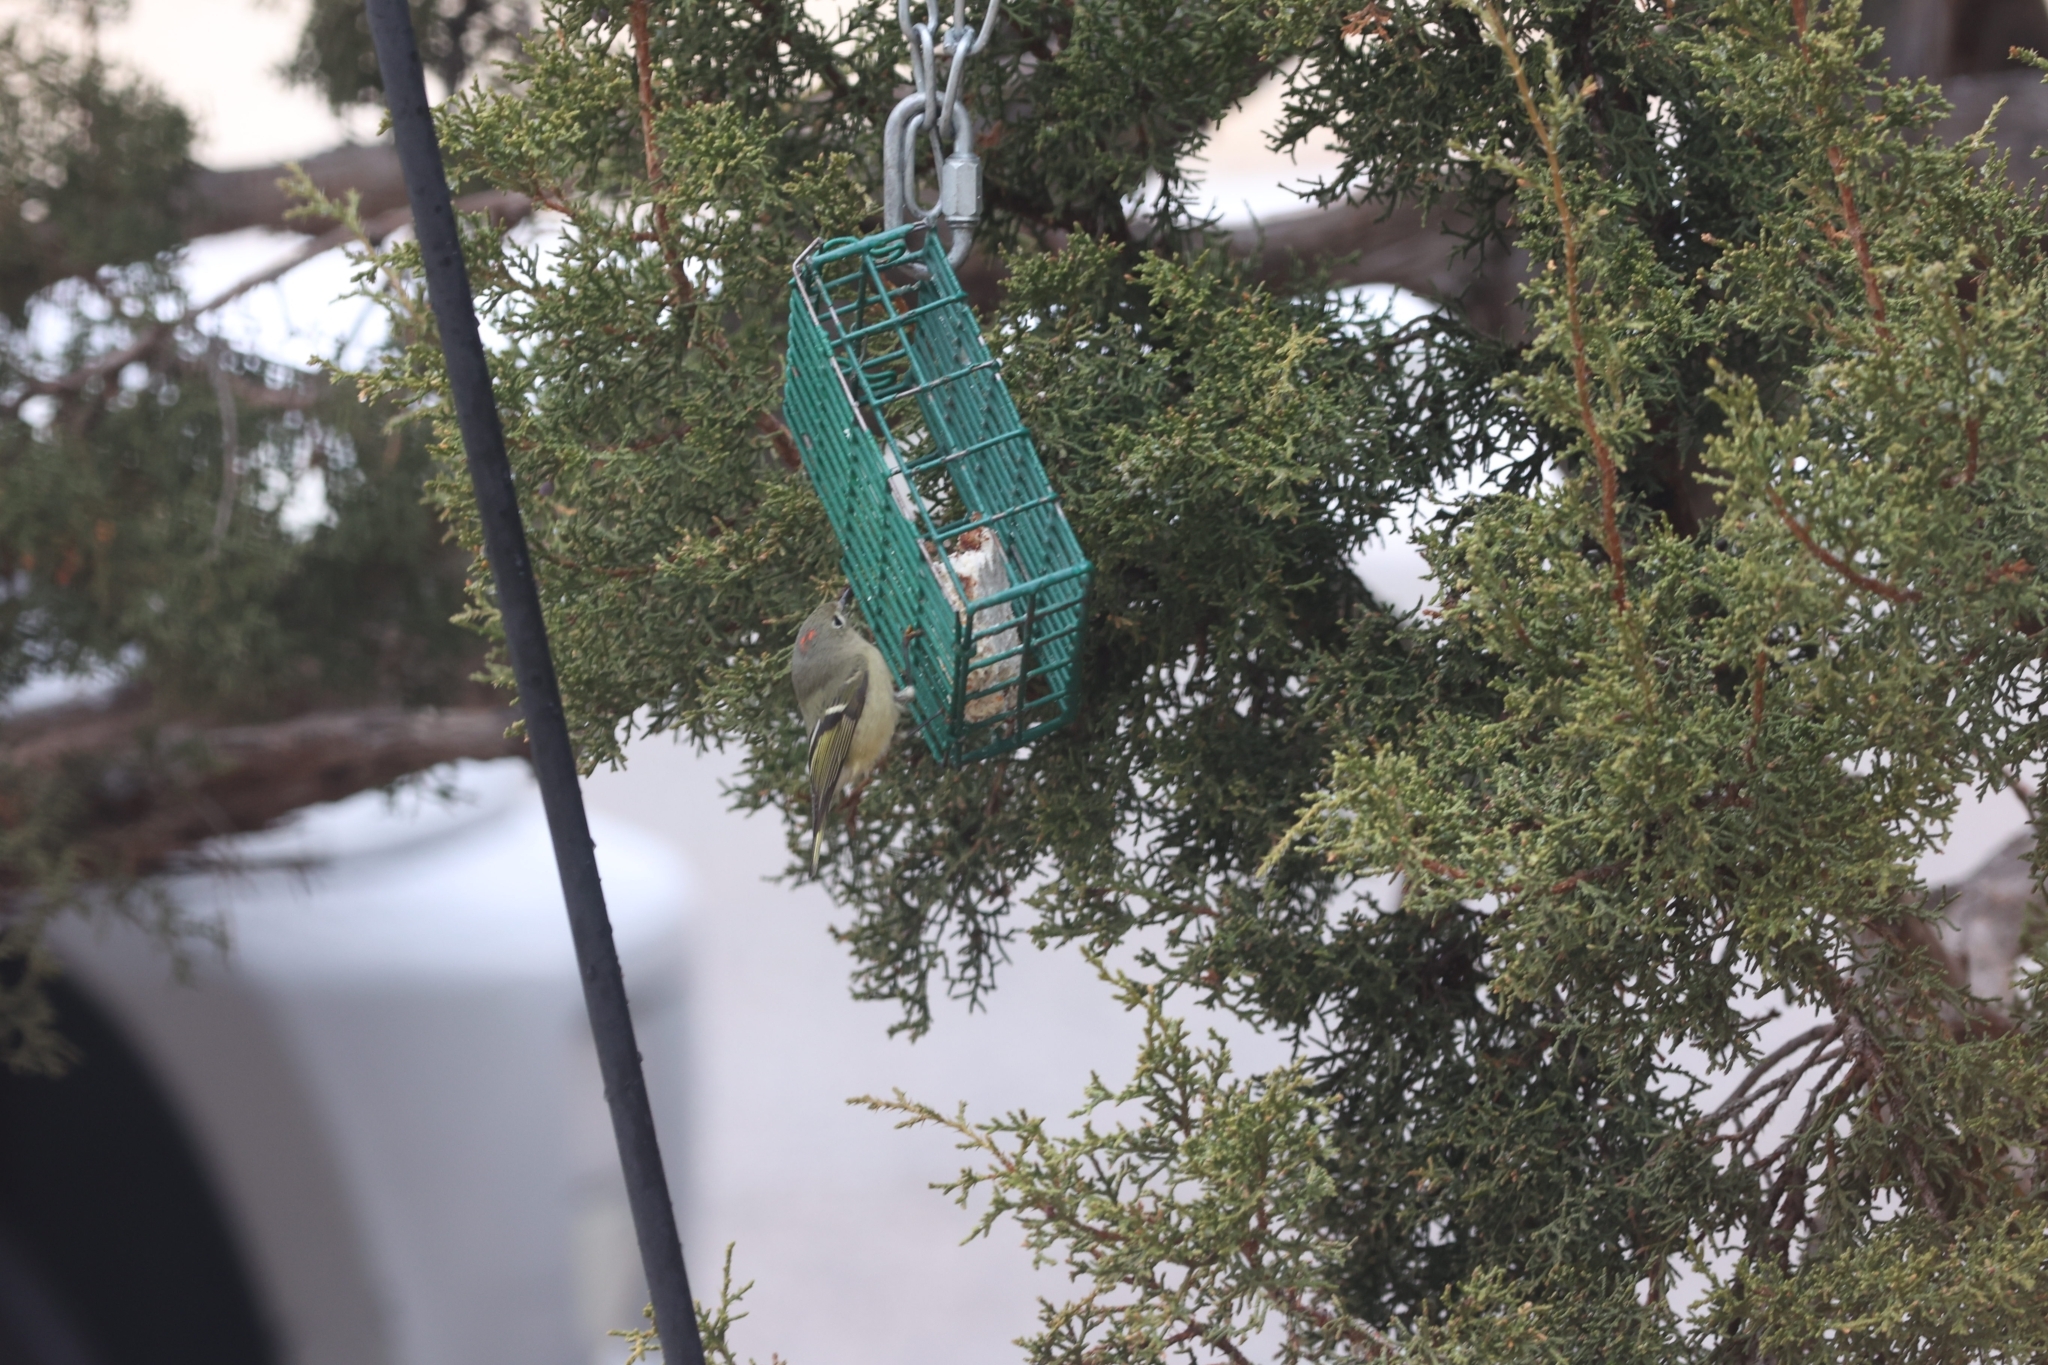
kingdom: Animalia
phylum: Chordata
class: Aves
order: Passeriformes
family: Regulidae
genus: Regulus
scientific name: Regulus calendula
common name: Ruby-crowned kinglet
